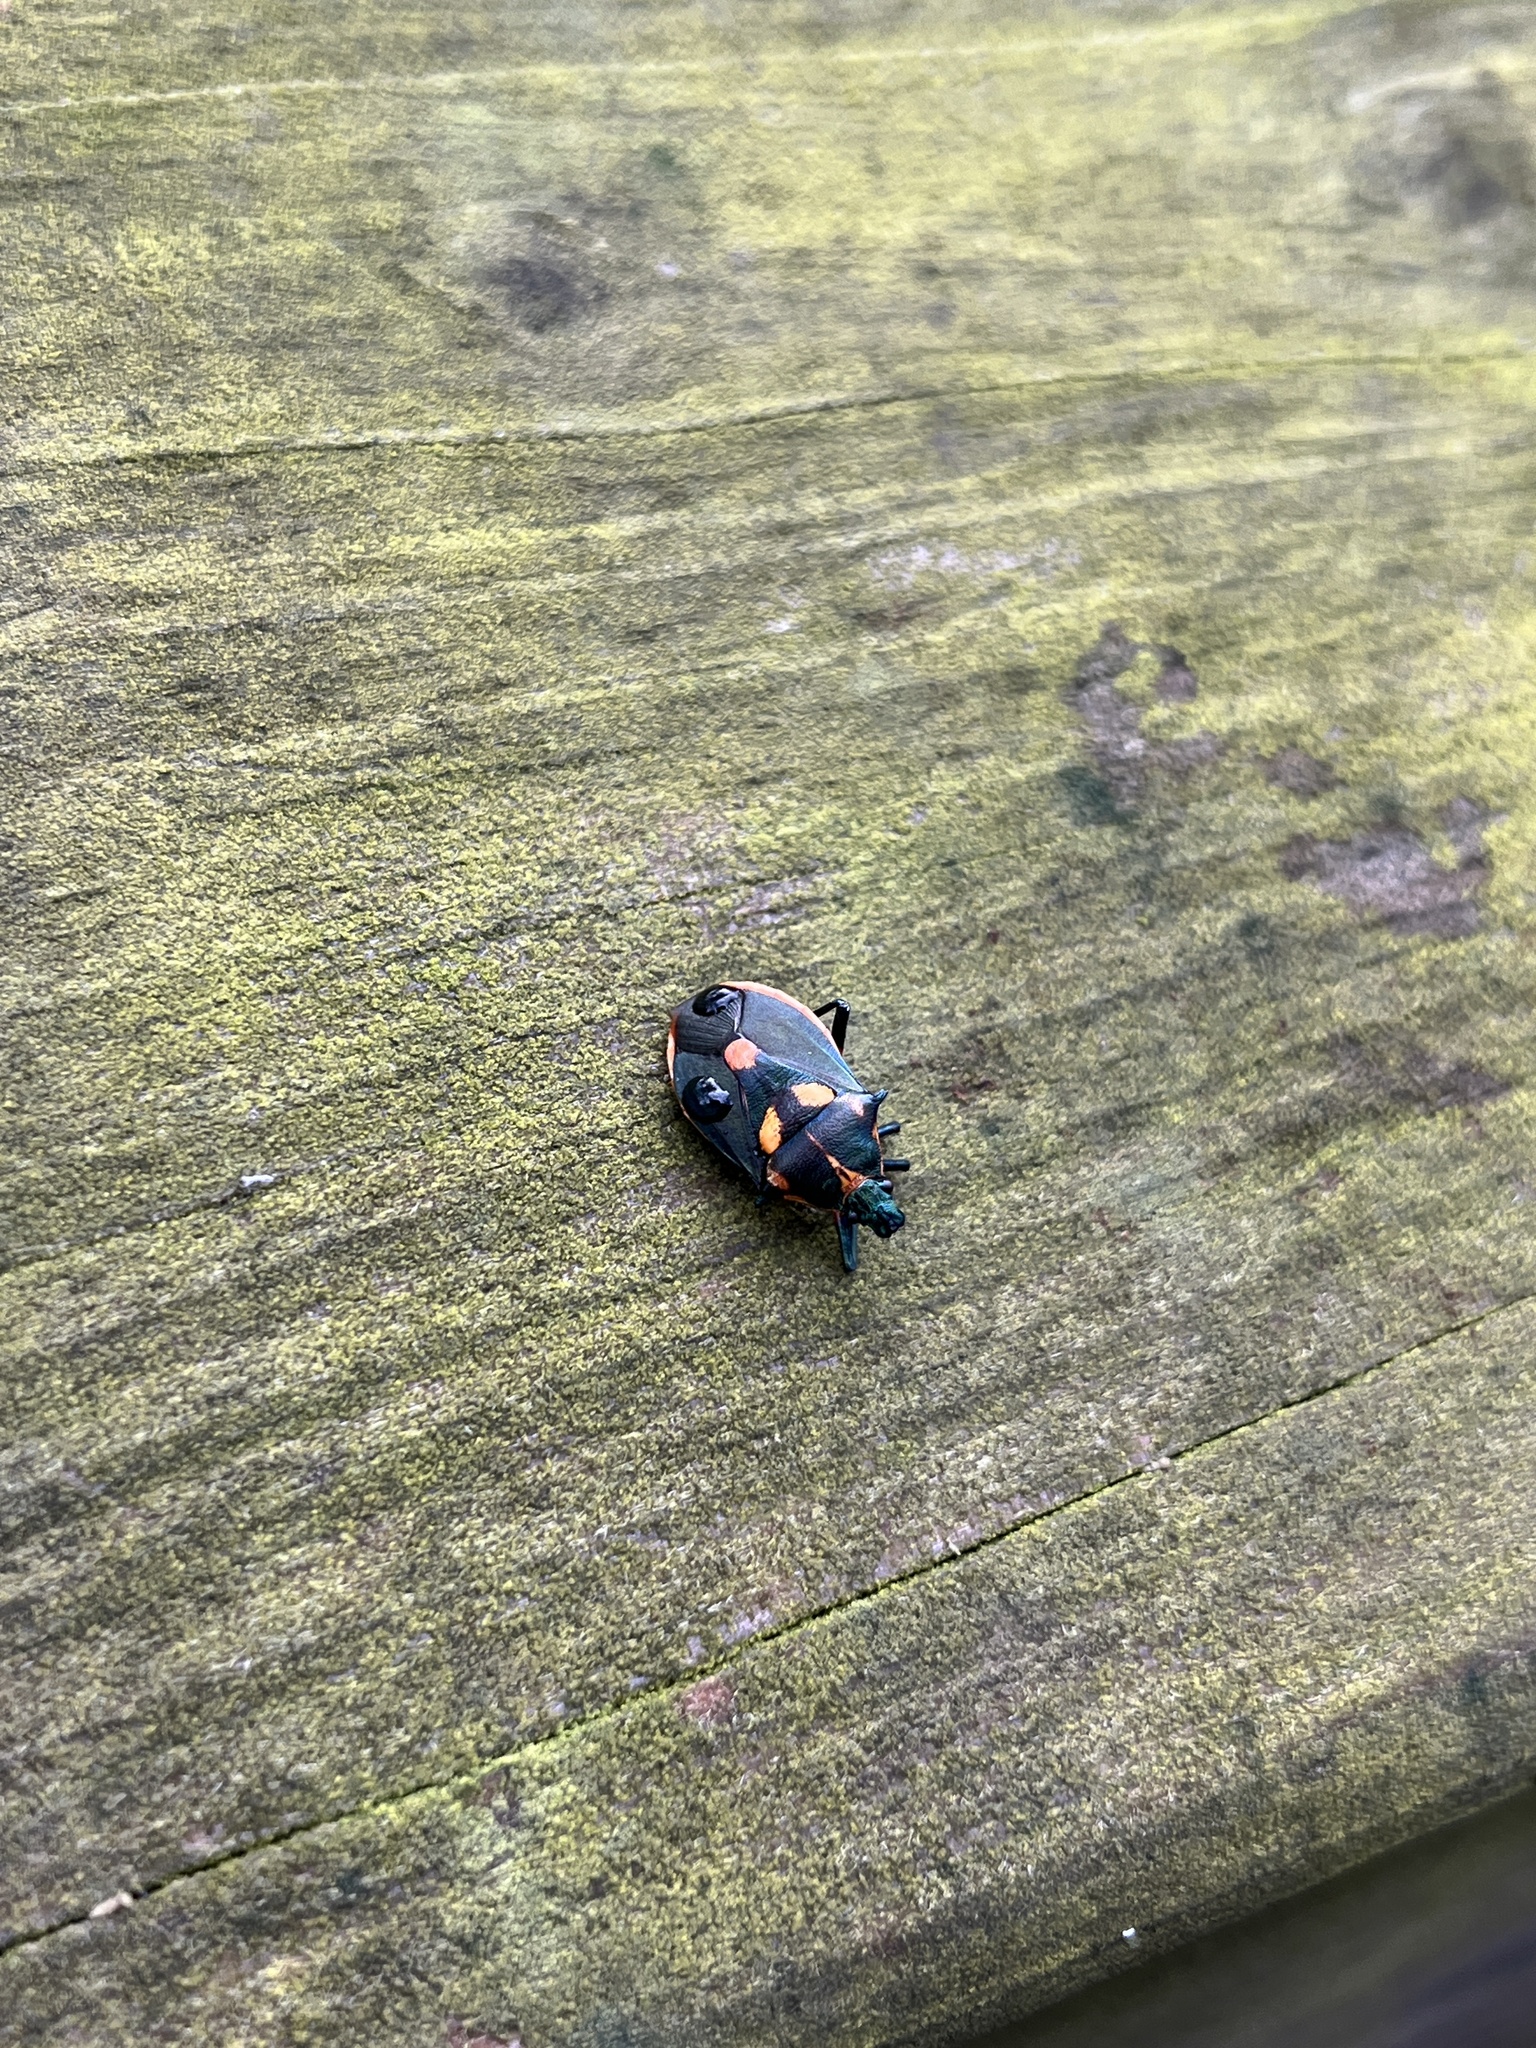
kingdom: Animalia
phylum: Arthropoda
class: Insecta
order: Hemiptera
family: Pentatomidae
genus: Euthyrhynchus
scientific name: Euthyrhynchus floridanus
